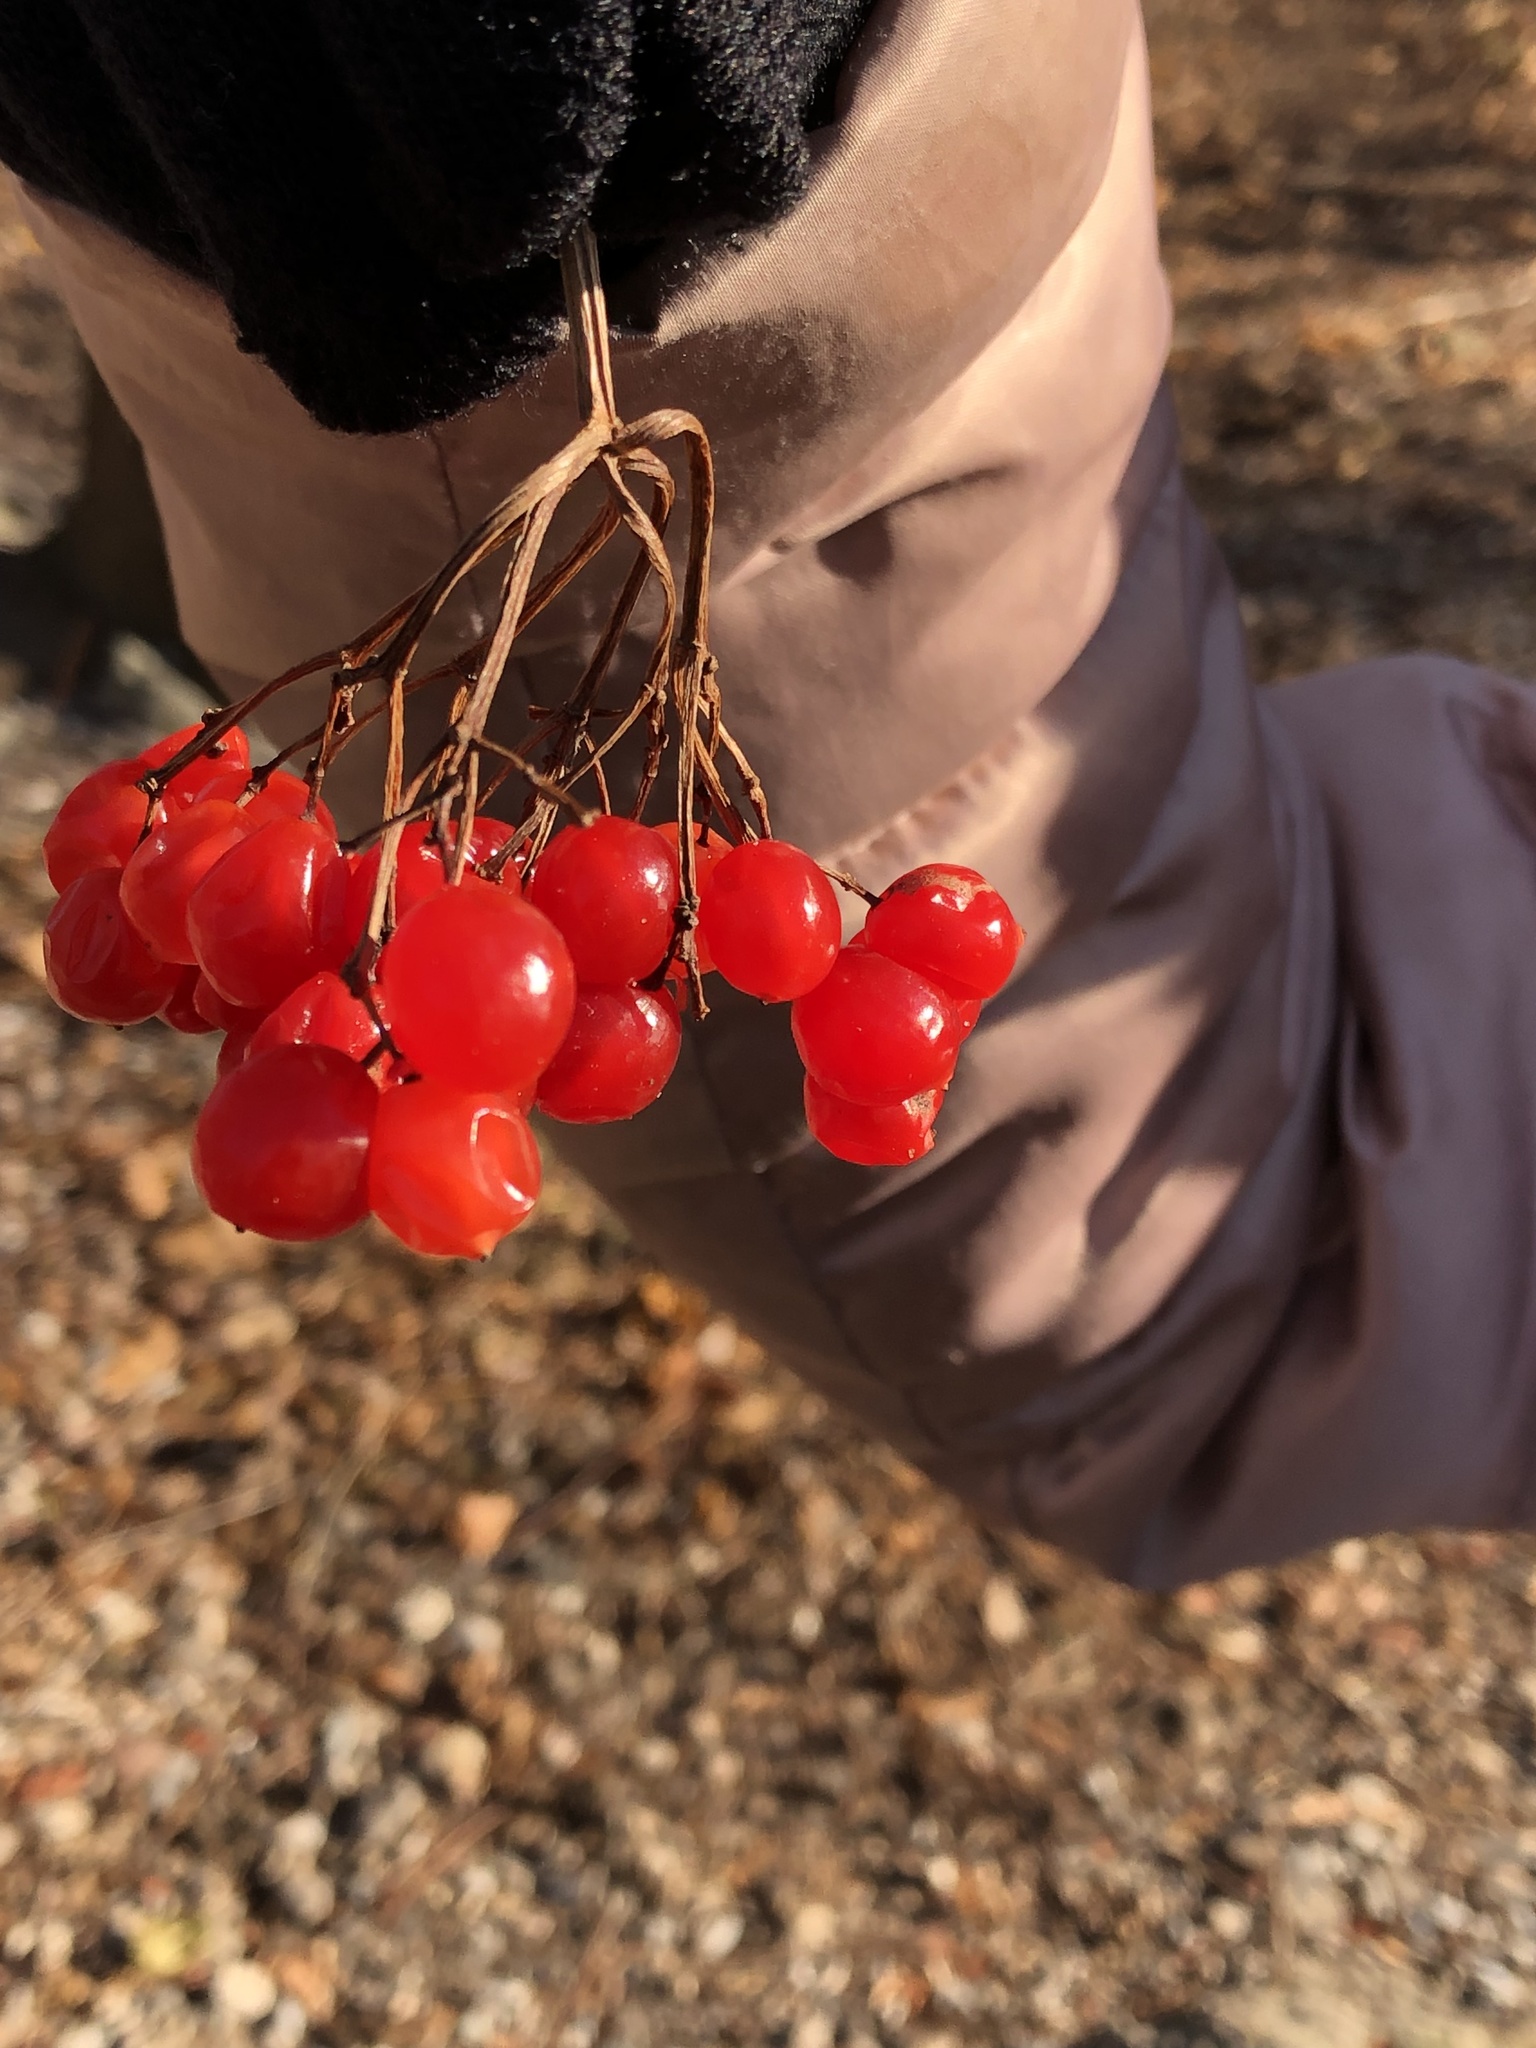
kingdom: Plantae
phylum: Tracheophyta
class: Magnoliopsida
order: Dipsacales
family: Viburnaceae
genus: Viburnum
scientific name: Viburnum opulus
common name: Guelder-rose
